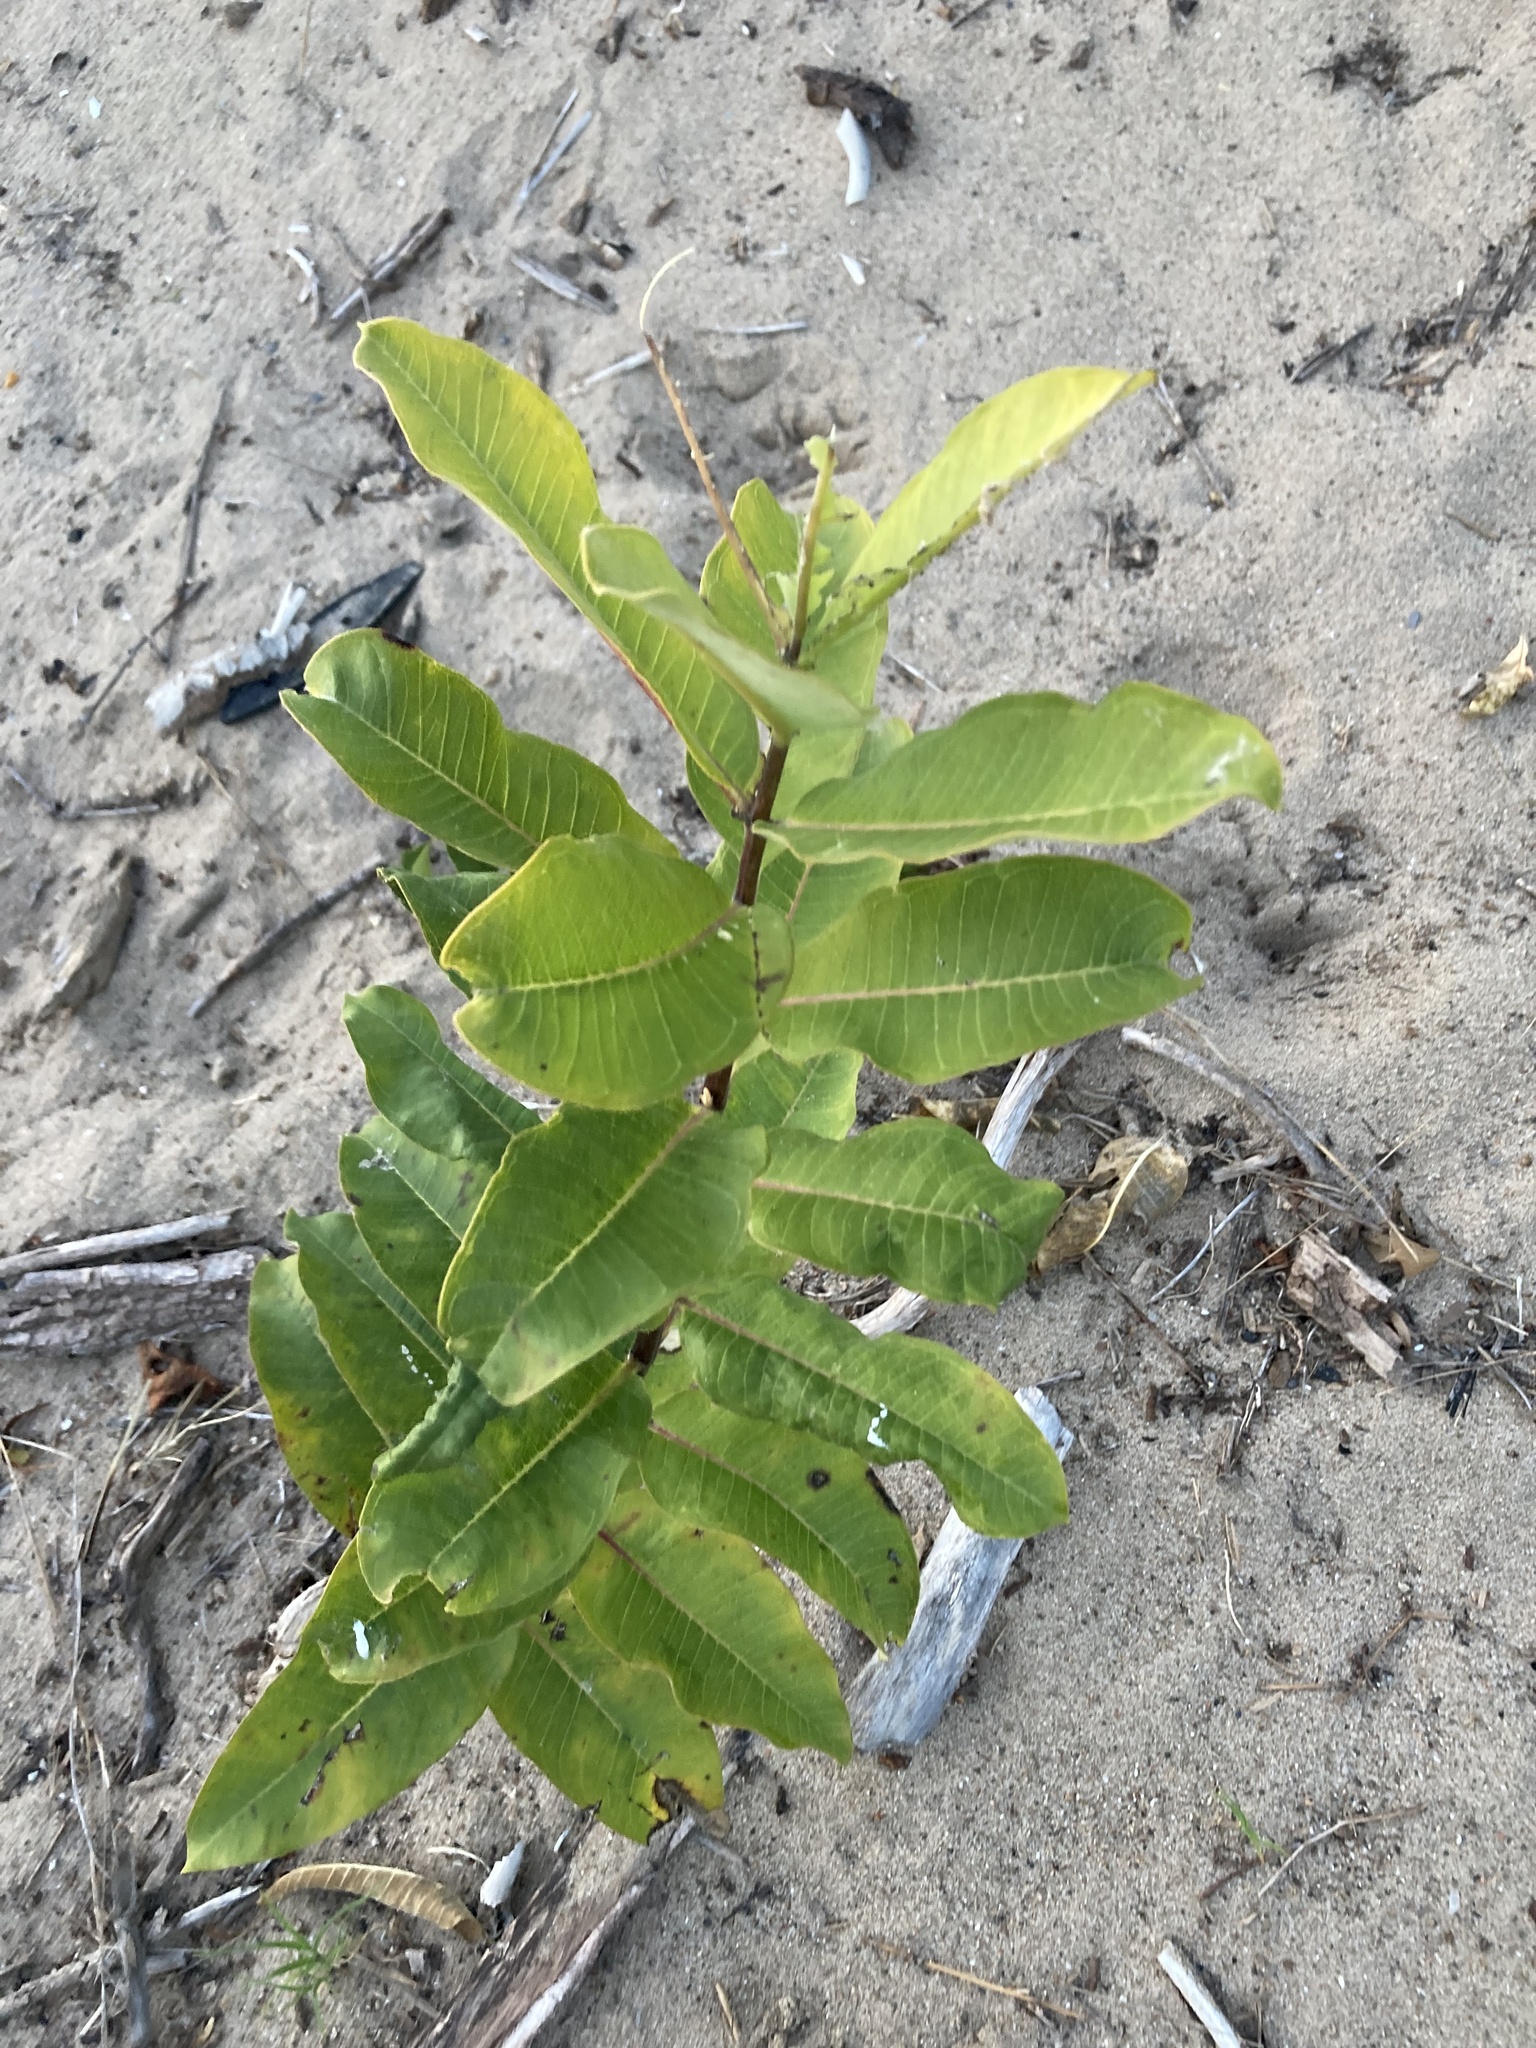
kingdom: Plantae
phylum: Tracheophyta
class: Magnoliopsida
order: Gentianales
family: Apocynaceae
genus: Asclepias
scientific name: Asclepias syriaca
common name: Common milkweed
